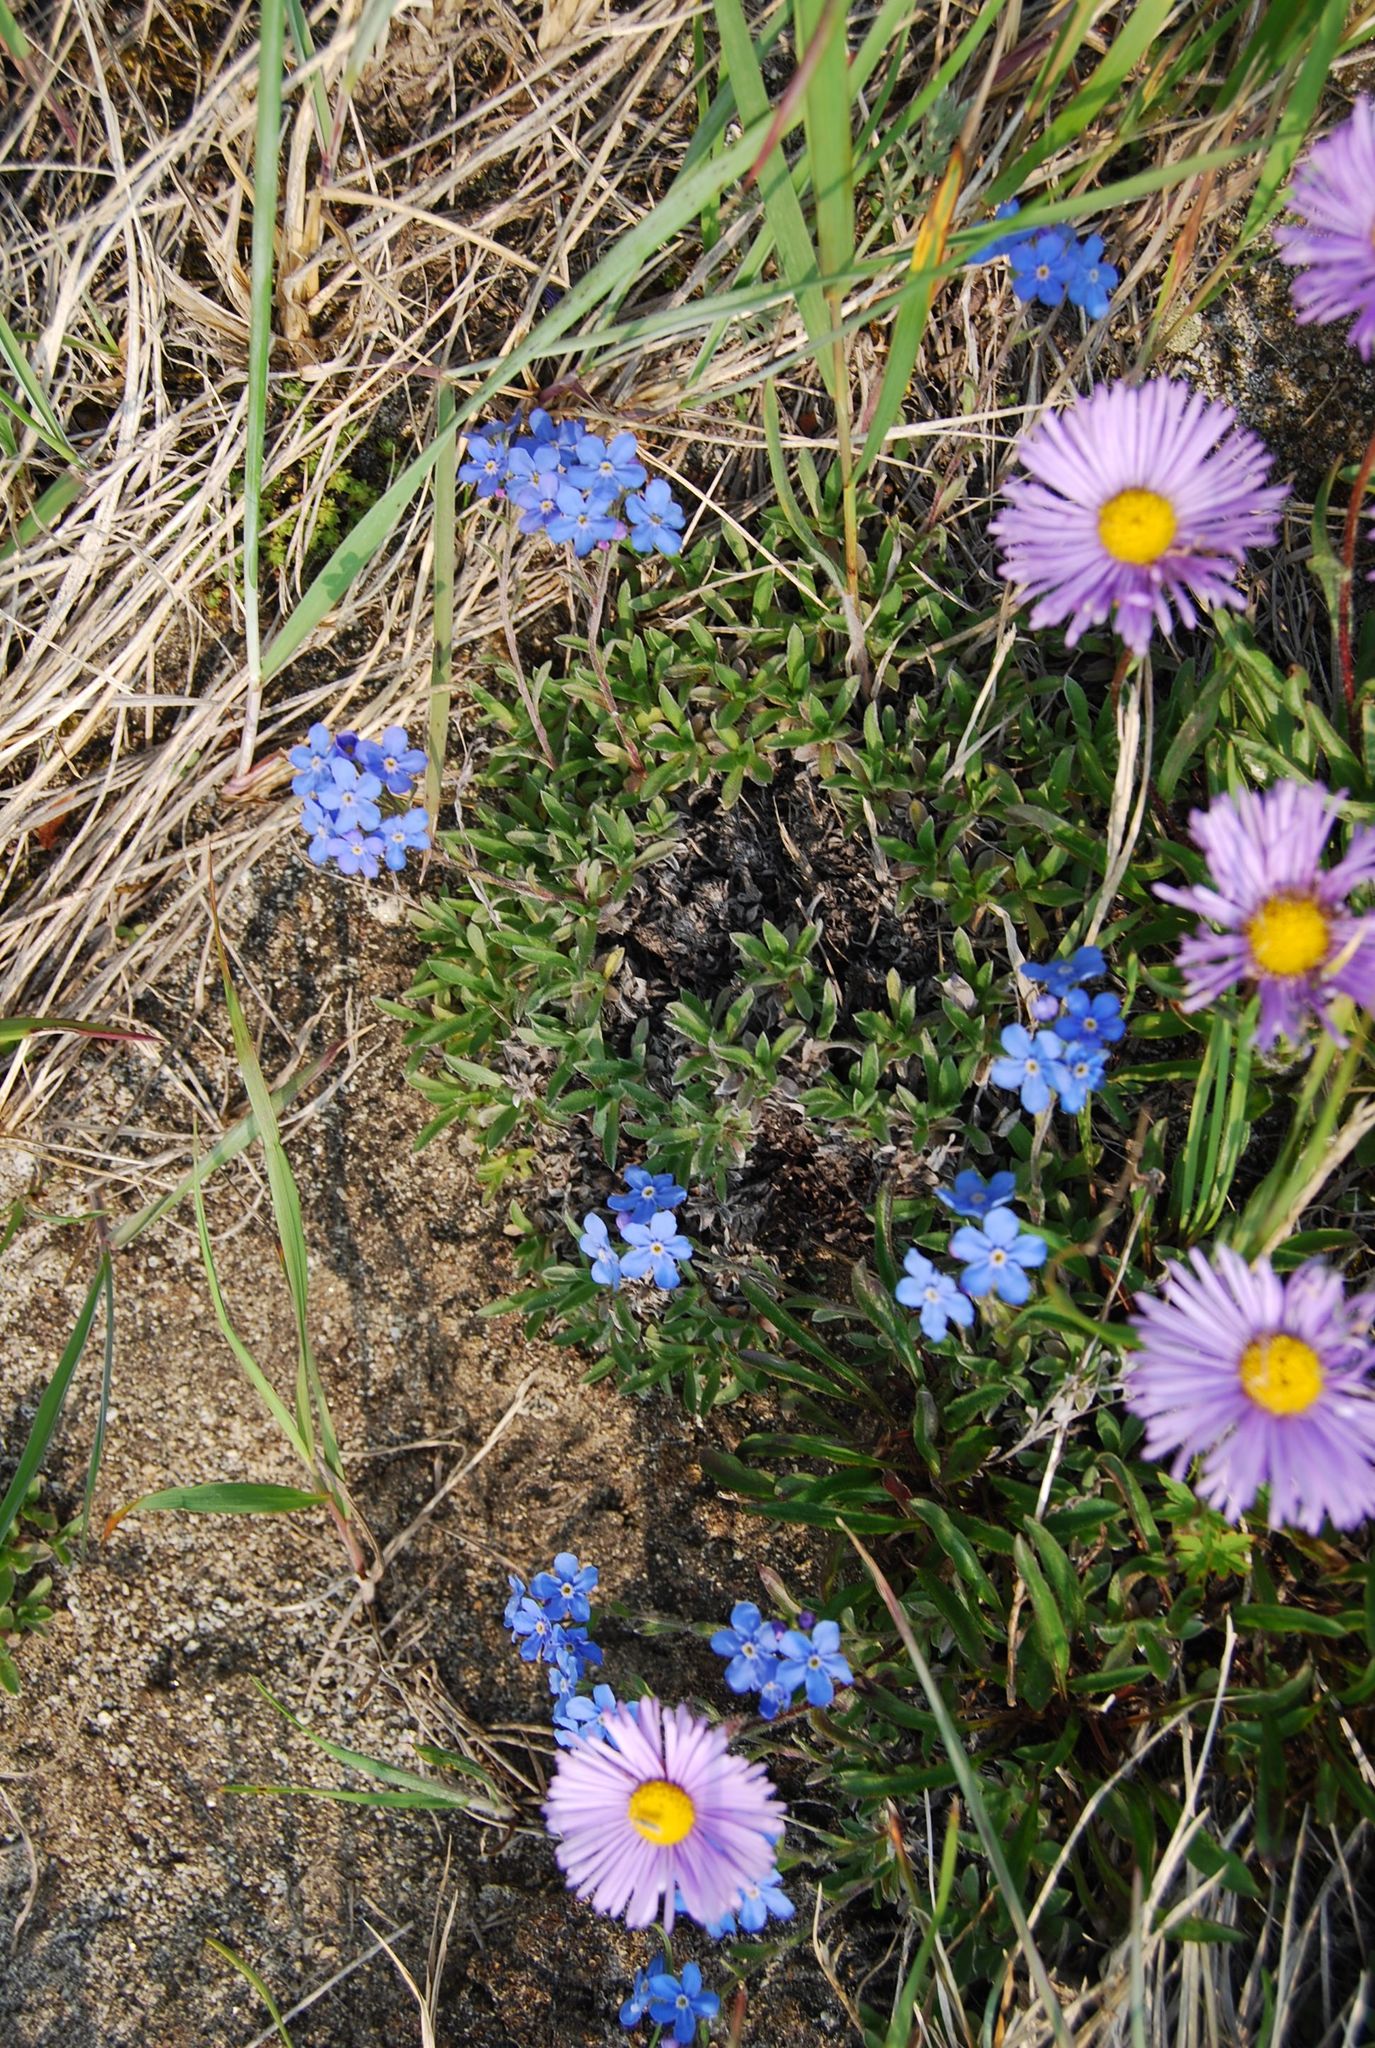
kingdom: Plantae
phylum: Tracheophyta
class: Magnoliopsida
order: Boraginales
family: Boraginaceae
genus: Eritrichium
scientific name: Eritrichium sericeum
